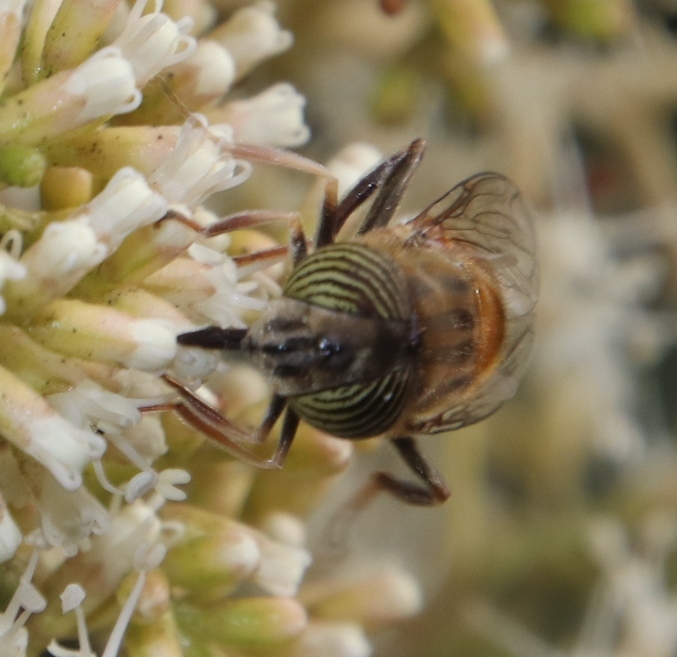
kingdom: Animalia
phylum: Arthropoda
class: Insecta
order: Diptera
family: Syrphidae
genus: Eristalinus
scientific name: Eristalinus taeniops
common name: Syrphid fly
